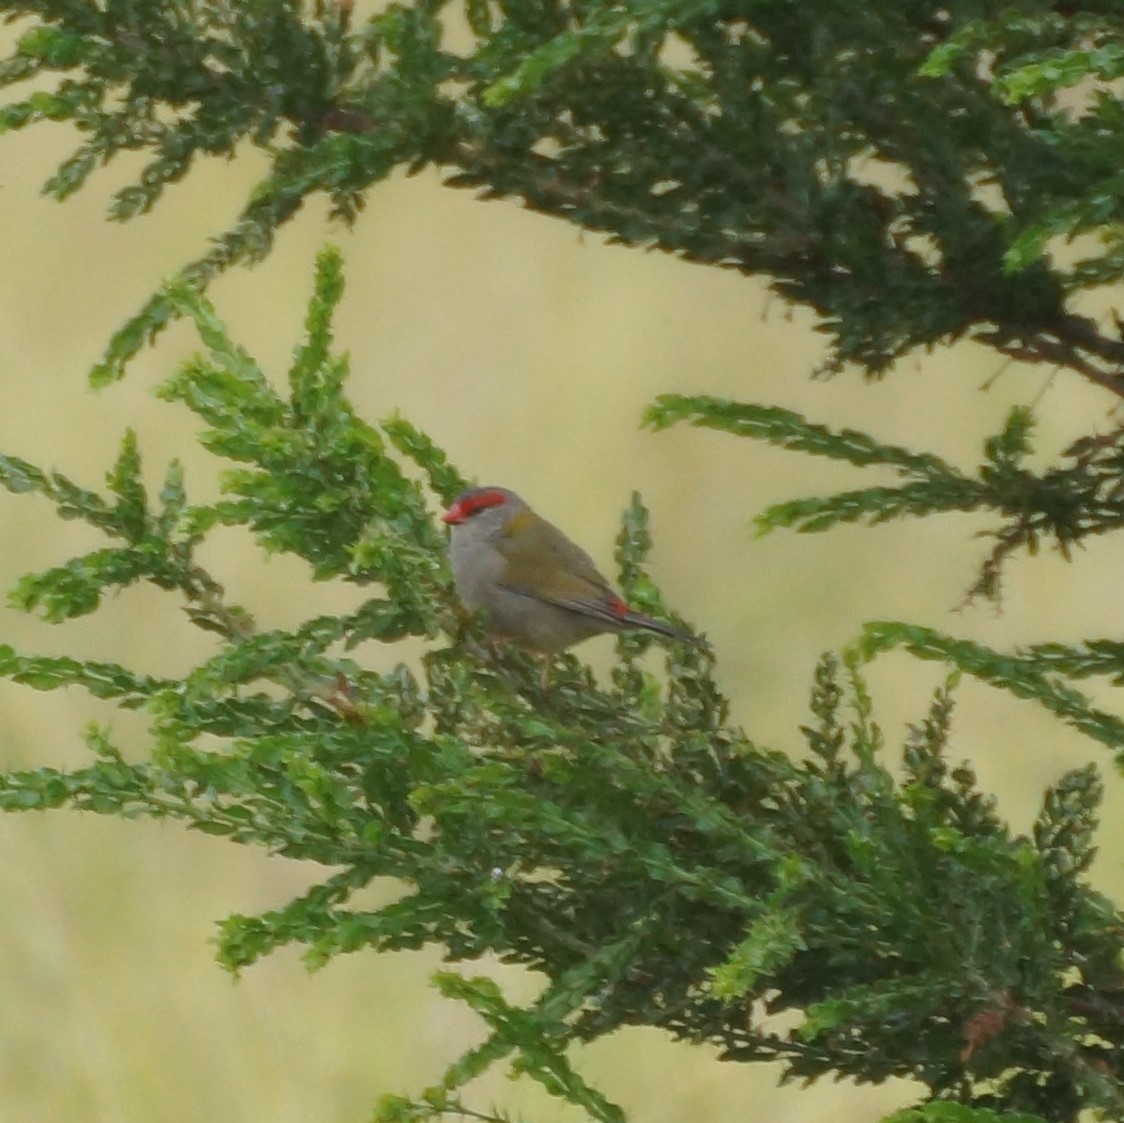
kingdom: Animalia
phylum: Chordata
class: Aves
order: Passeriformes
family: Estrildidae
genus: Neochmia
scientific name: Neochmia temporalis
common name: Red-browed finch
